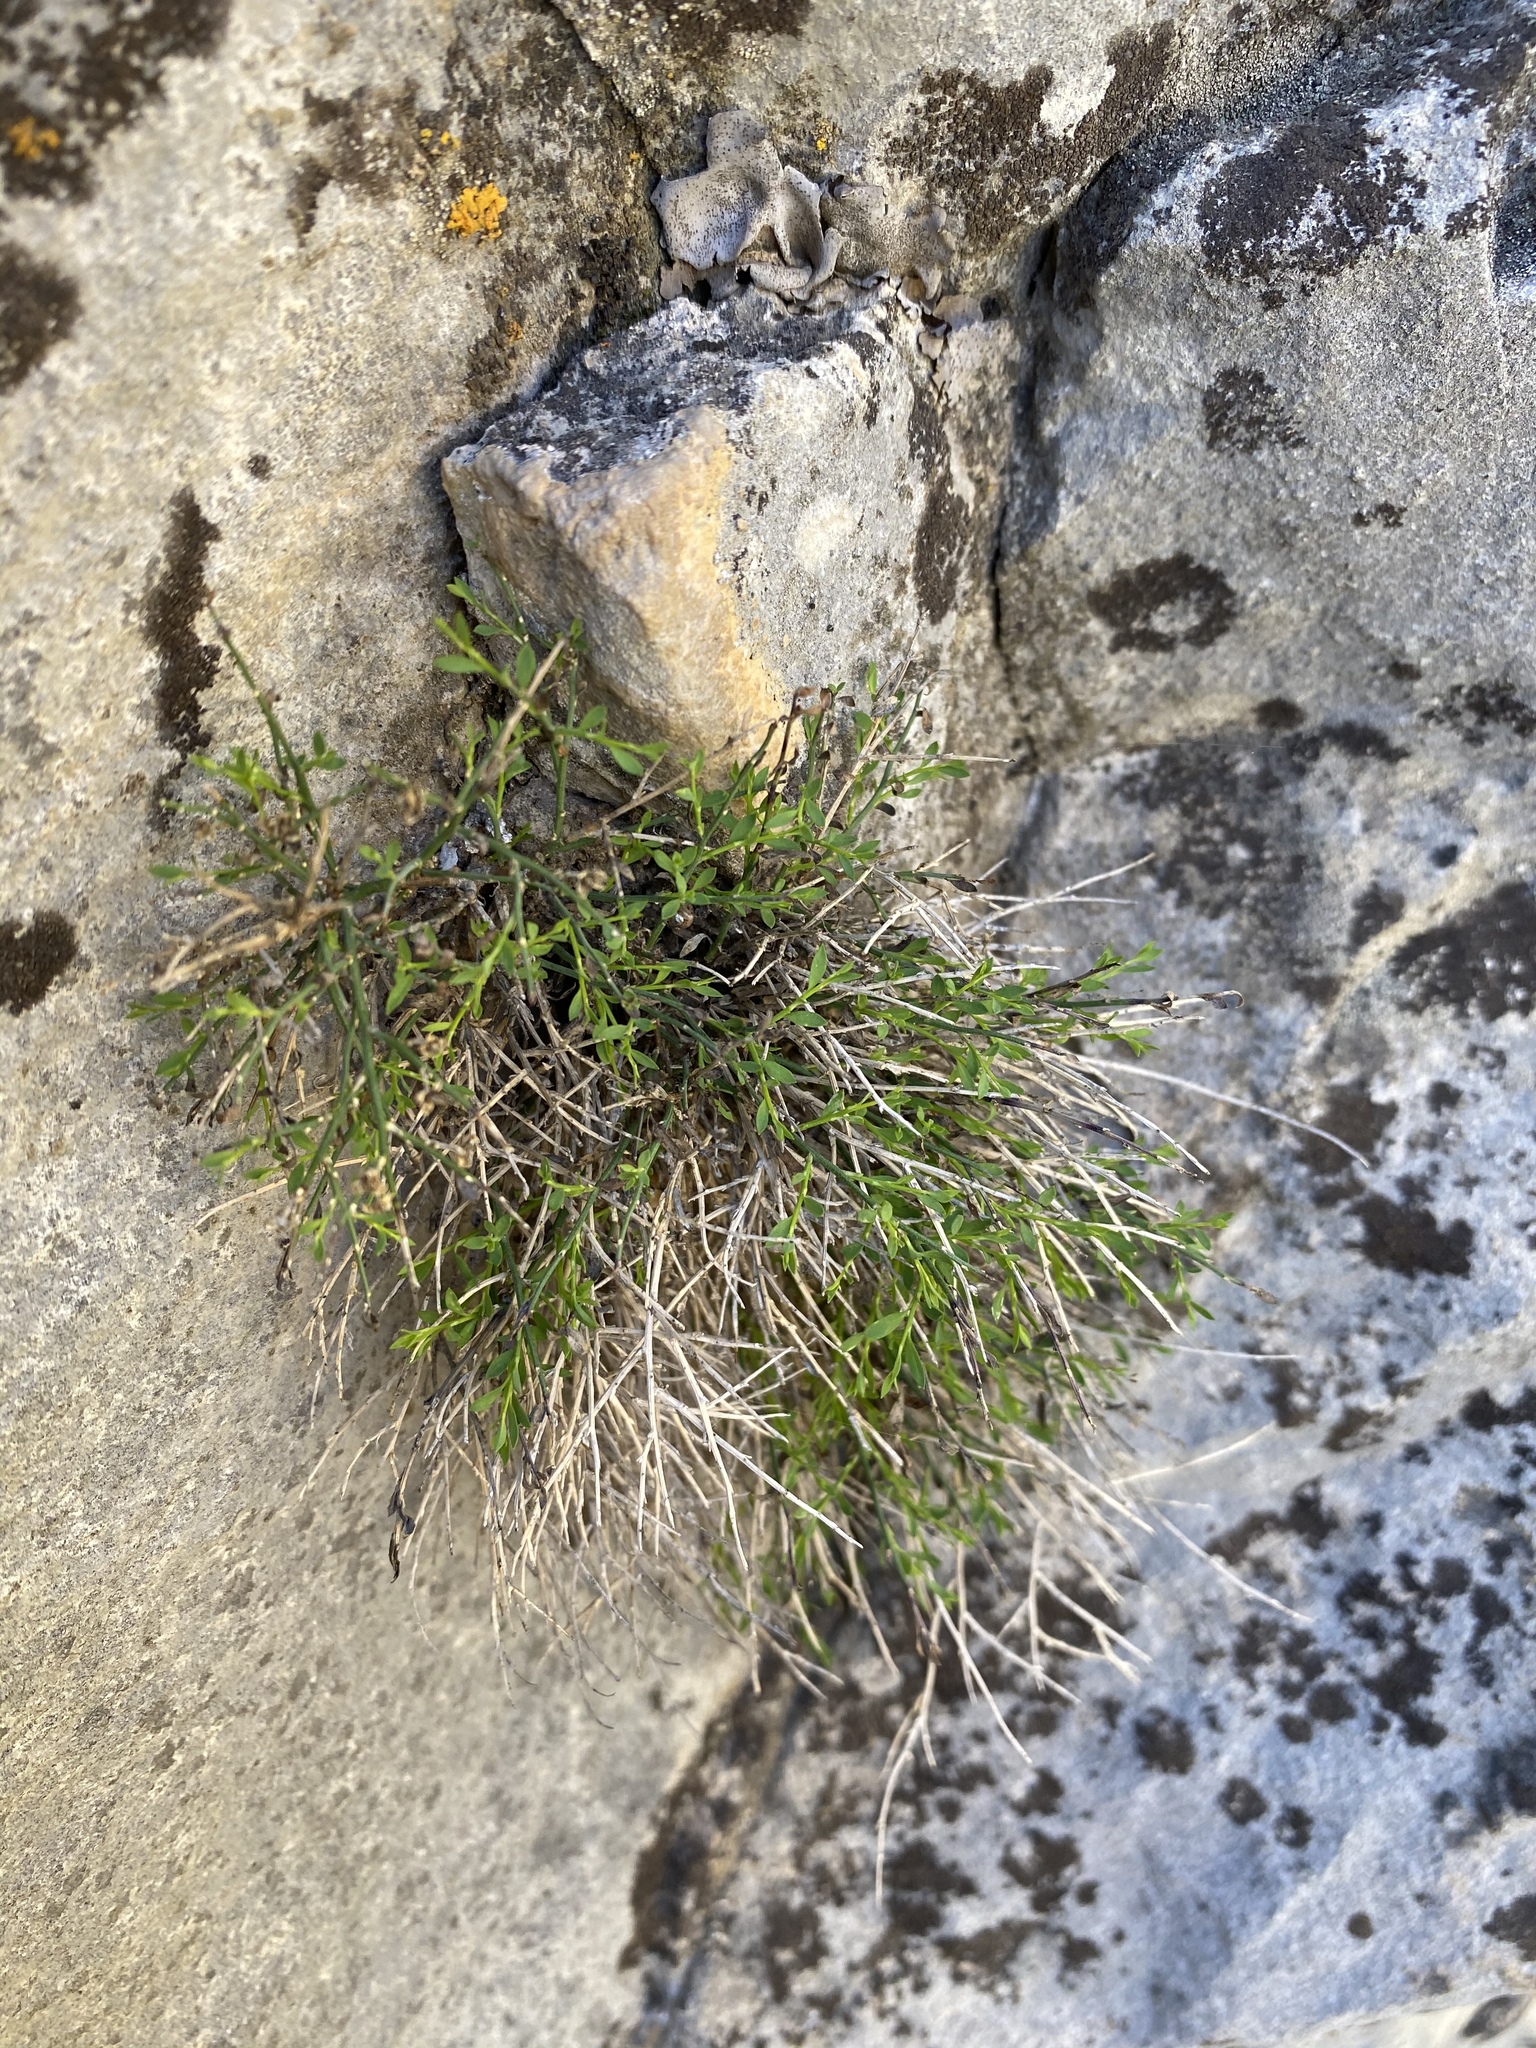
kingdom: Plantae
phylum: Tracheophyta
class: Magnoliopsida
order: Crossosomatales
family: Crossosomataceae
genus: Glossopetalon
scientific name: Glossopetalon spinescens
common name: Spring greasebush
